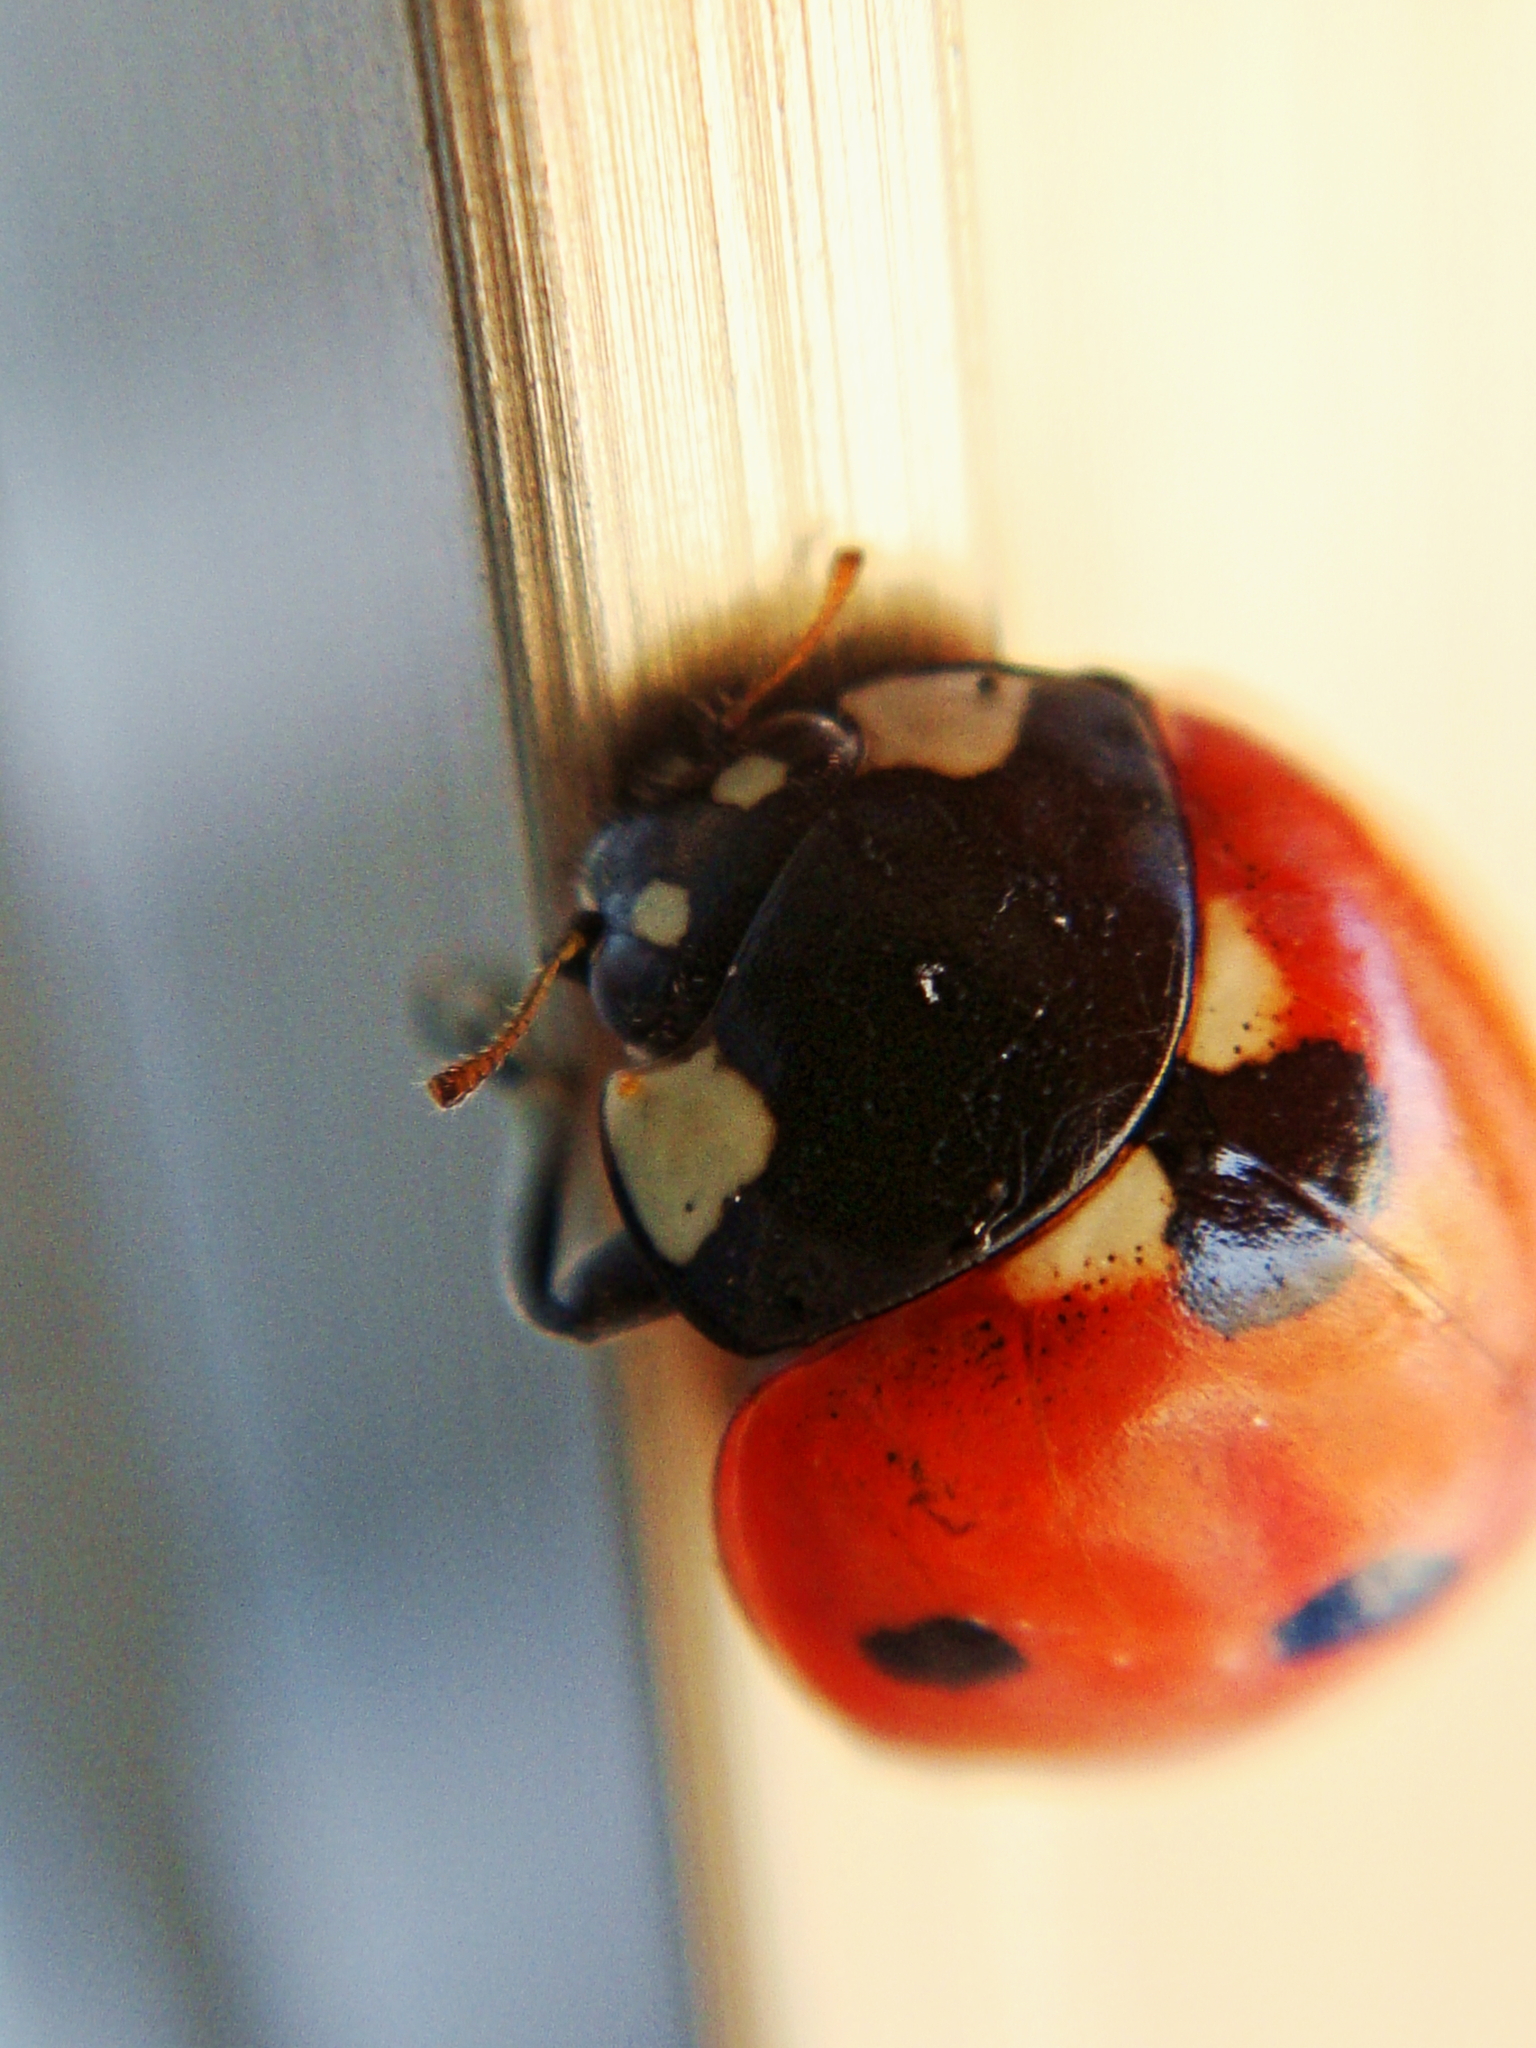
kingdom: Animalia
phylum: Arthropoda
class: Insecta
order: Coleoptera
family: Coccinellidae
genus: Coccinella
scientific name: Coccinella septempunctata
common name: Sevenspotted lady beetle
